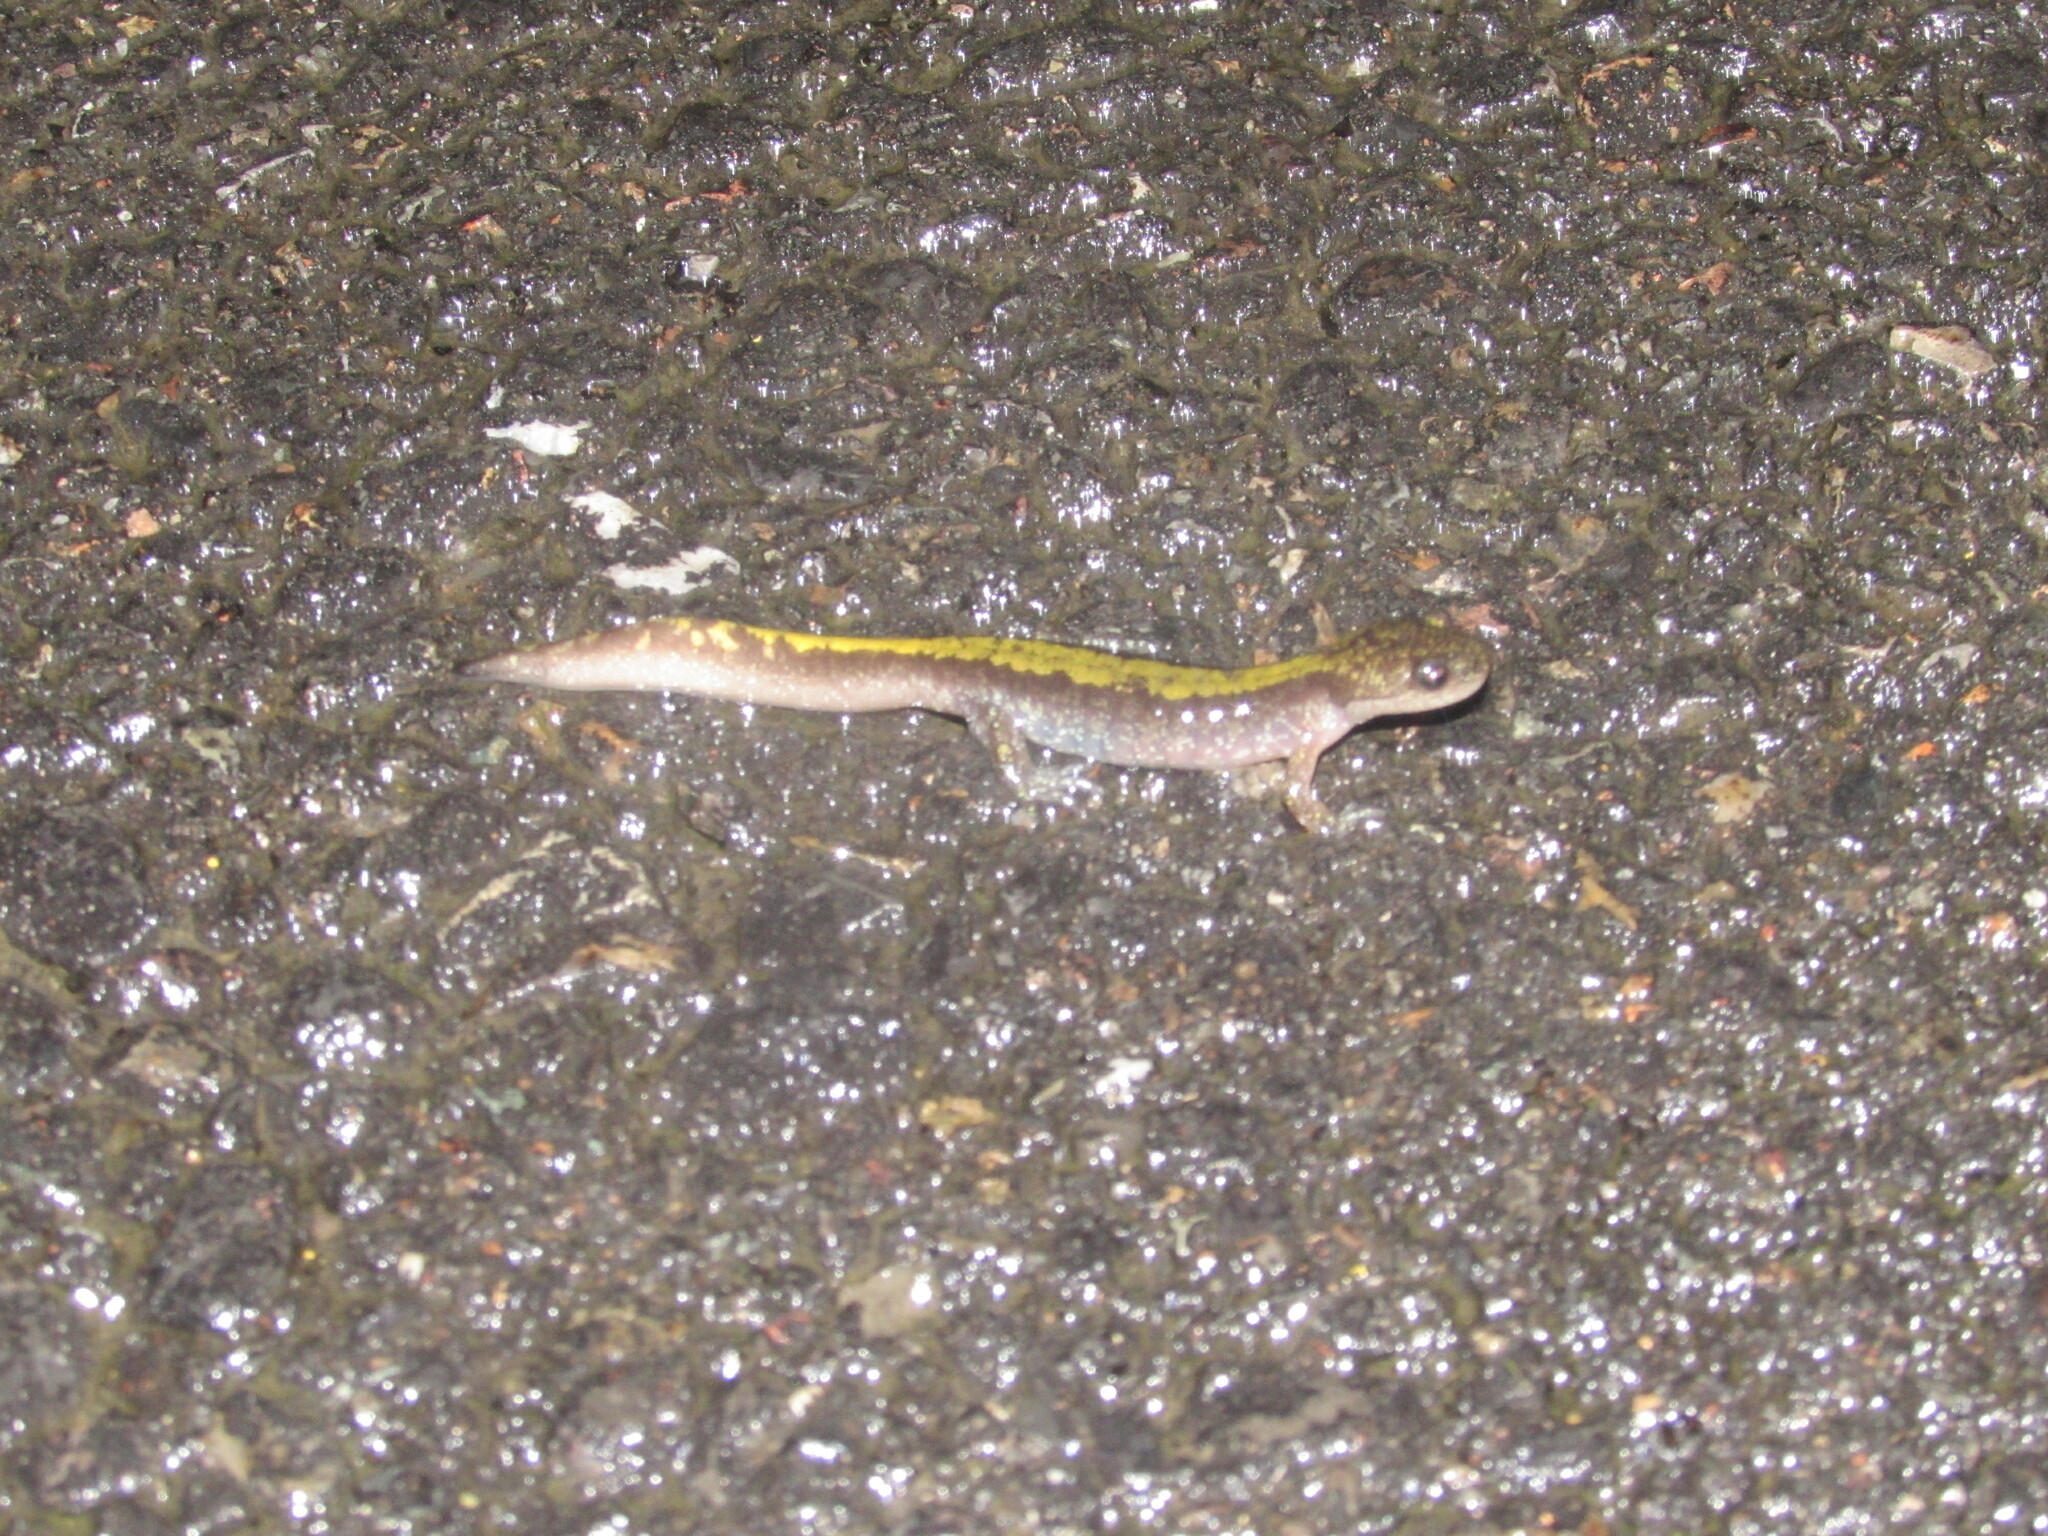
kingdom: Animalia
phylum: Chordata
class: Amphibia
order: Caudata
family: Ambystomatidae
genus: Ambystoma
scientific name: Ambystoma macrodactylum
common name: Long-toed salamander
